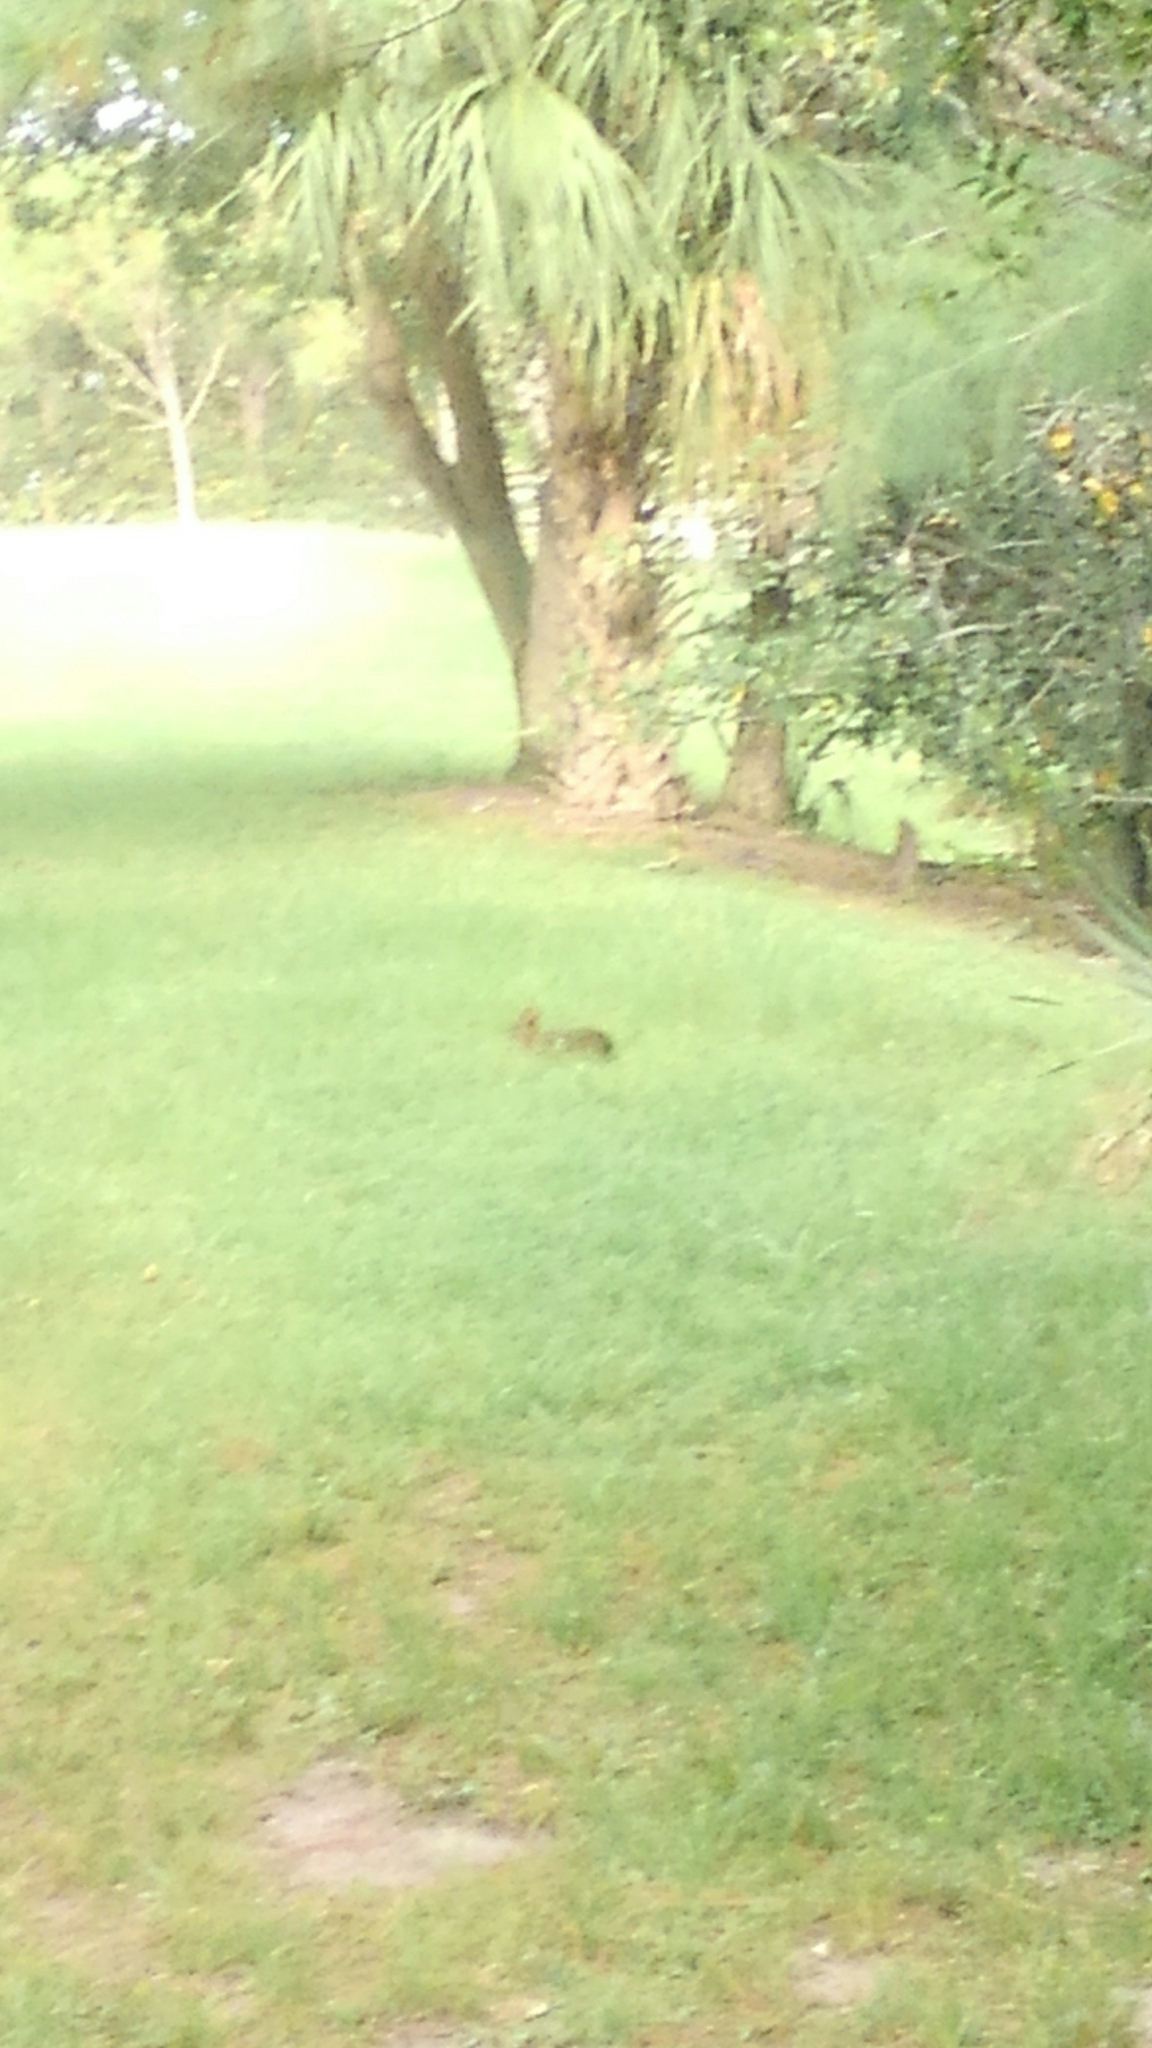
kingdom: Animalia
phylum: Chordata
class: Mammalia
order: Lagomorpha
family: Leporidae
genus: Sylvilagus
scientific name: Sylvilagus palustris
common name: Marsh rabbit
